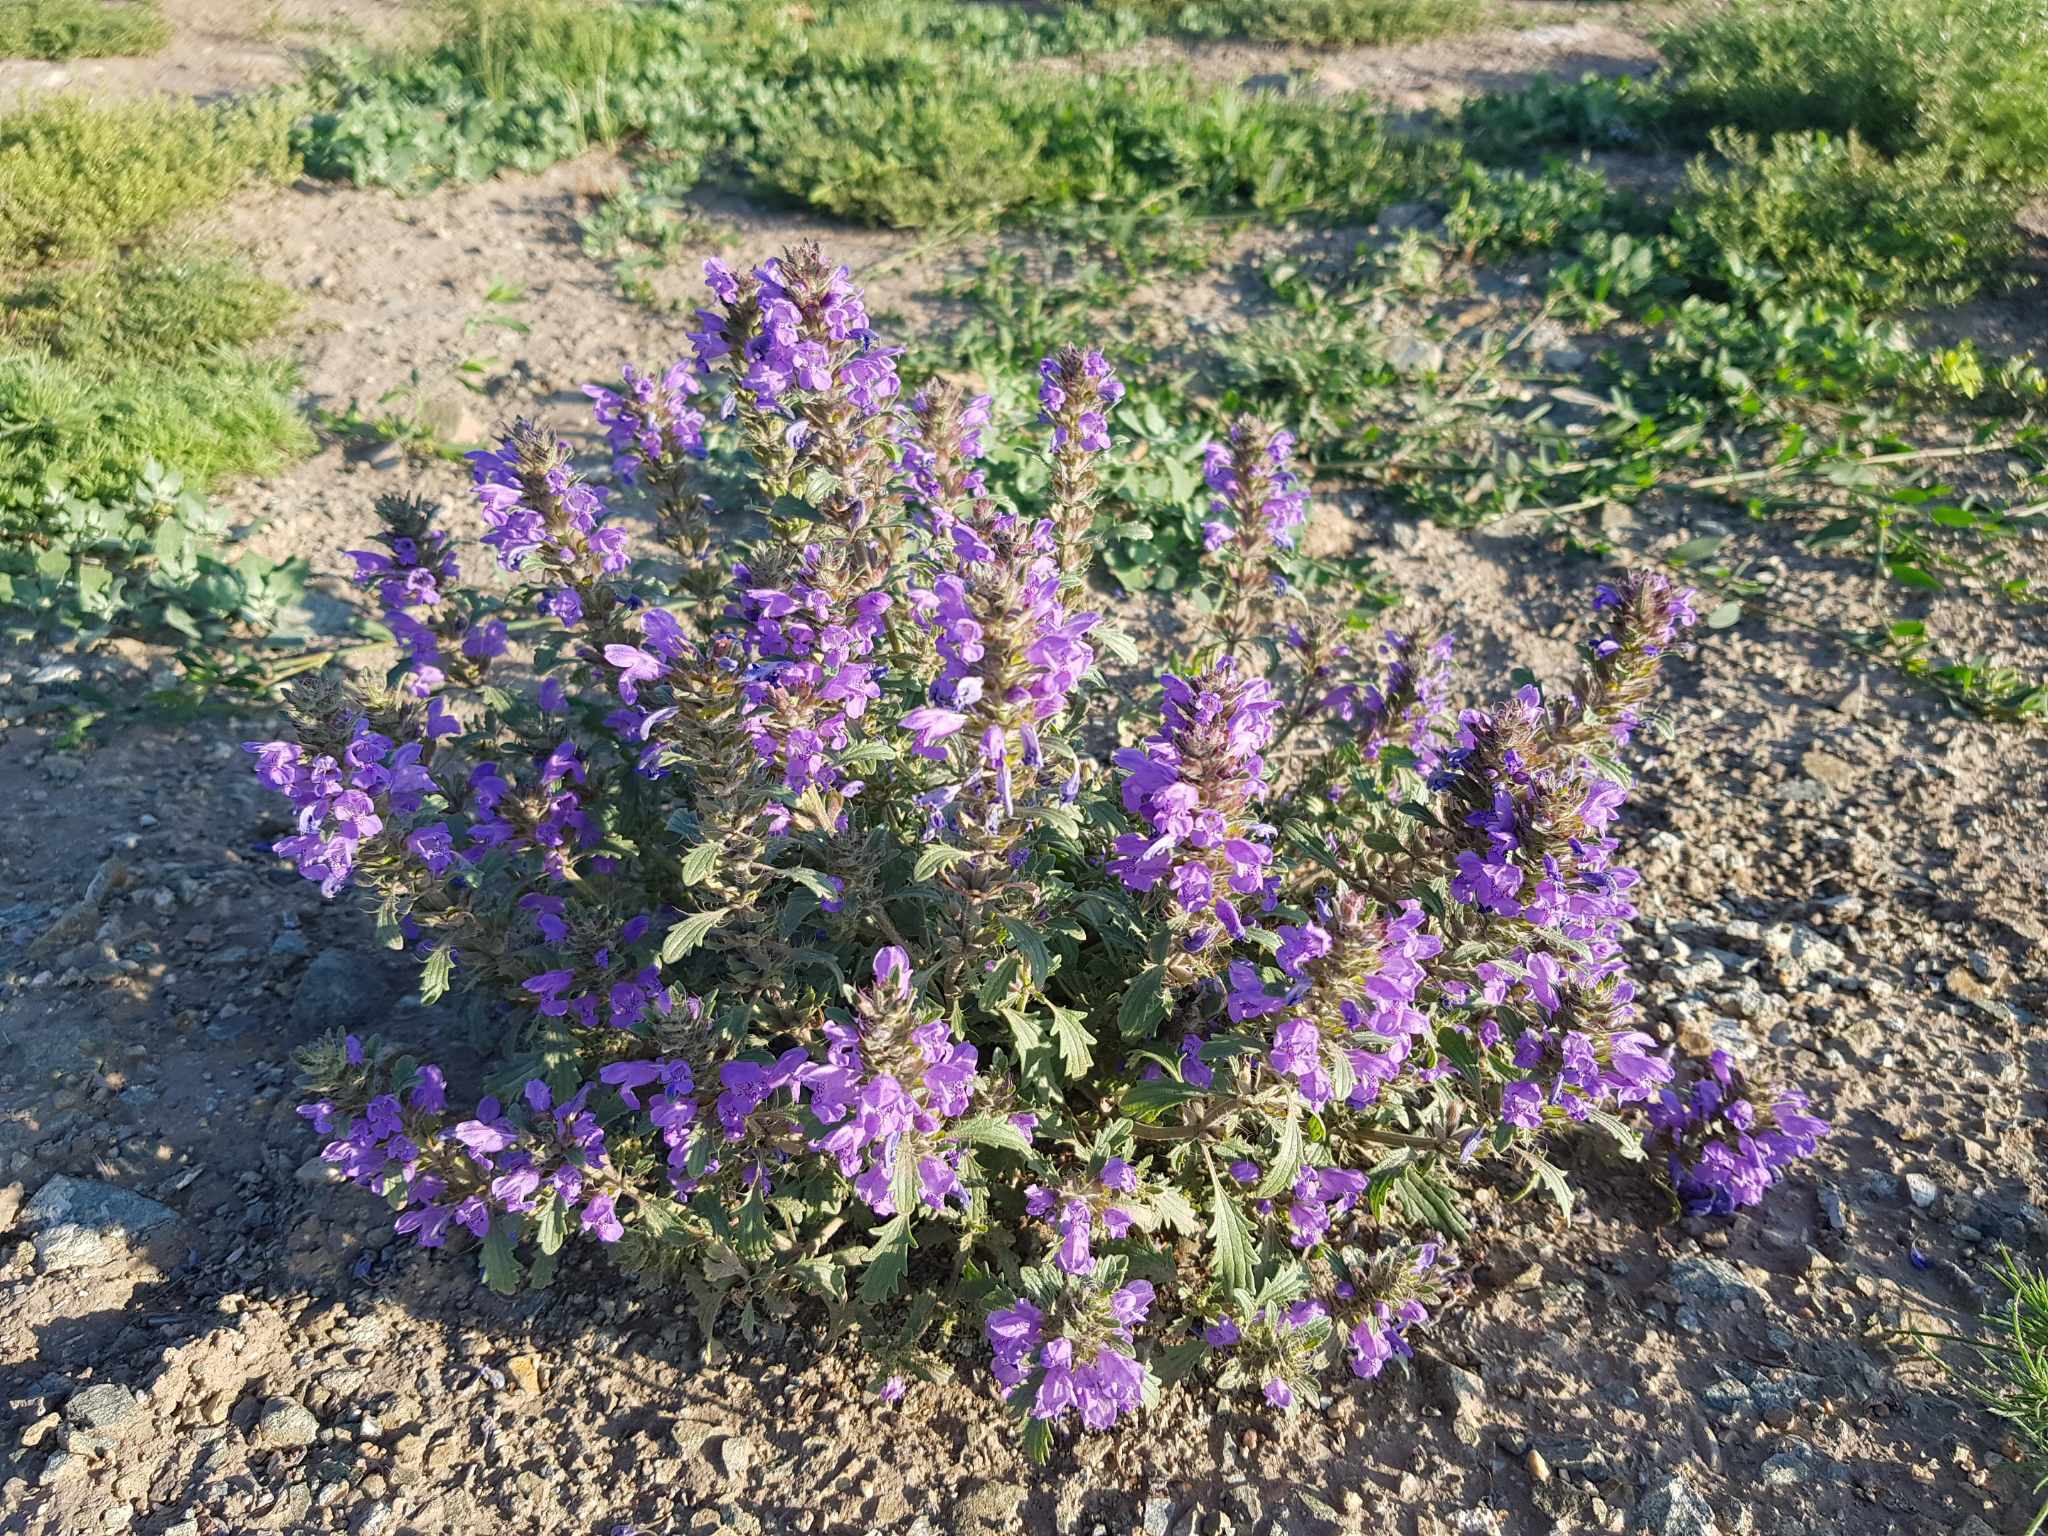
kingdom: Plantae
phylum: Tracheophyta
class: Magnoliopsida
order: Lamiales
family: Lamiaceae
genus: Dracocephalum
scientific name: Dracocephalum foetidum
